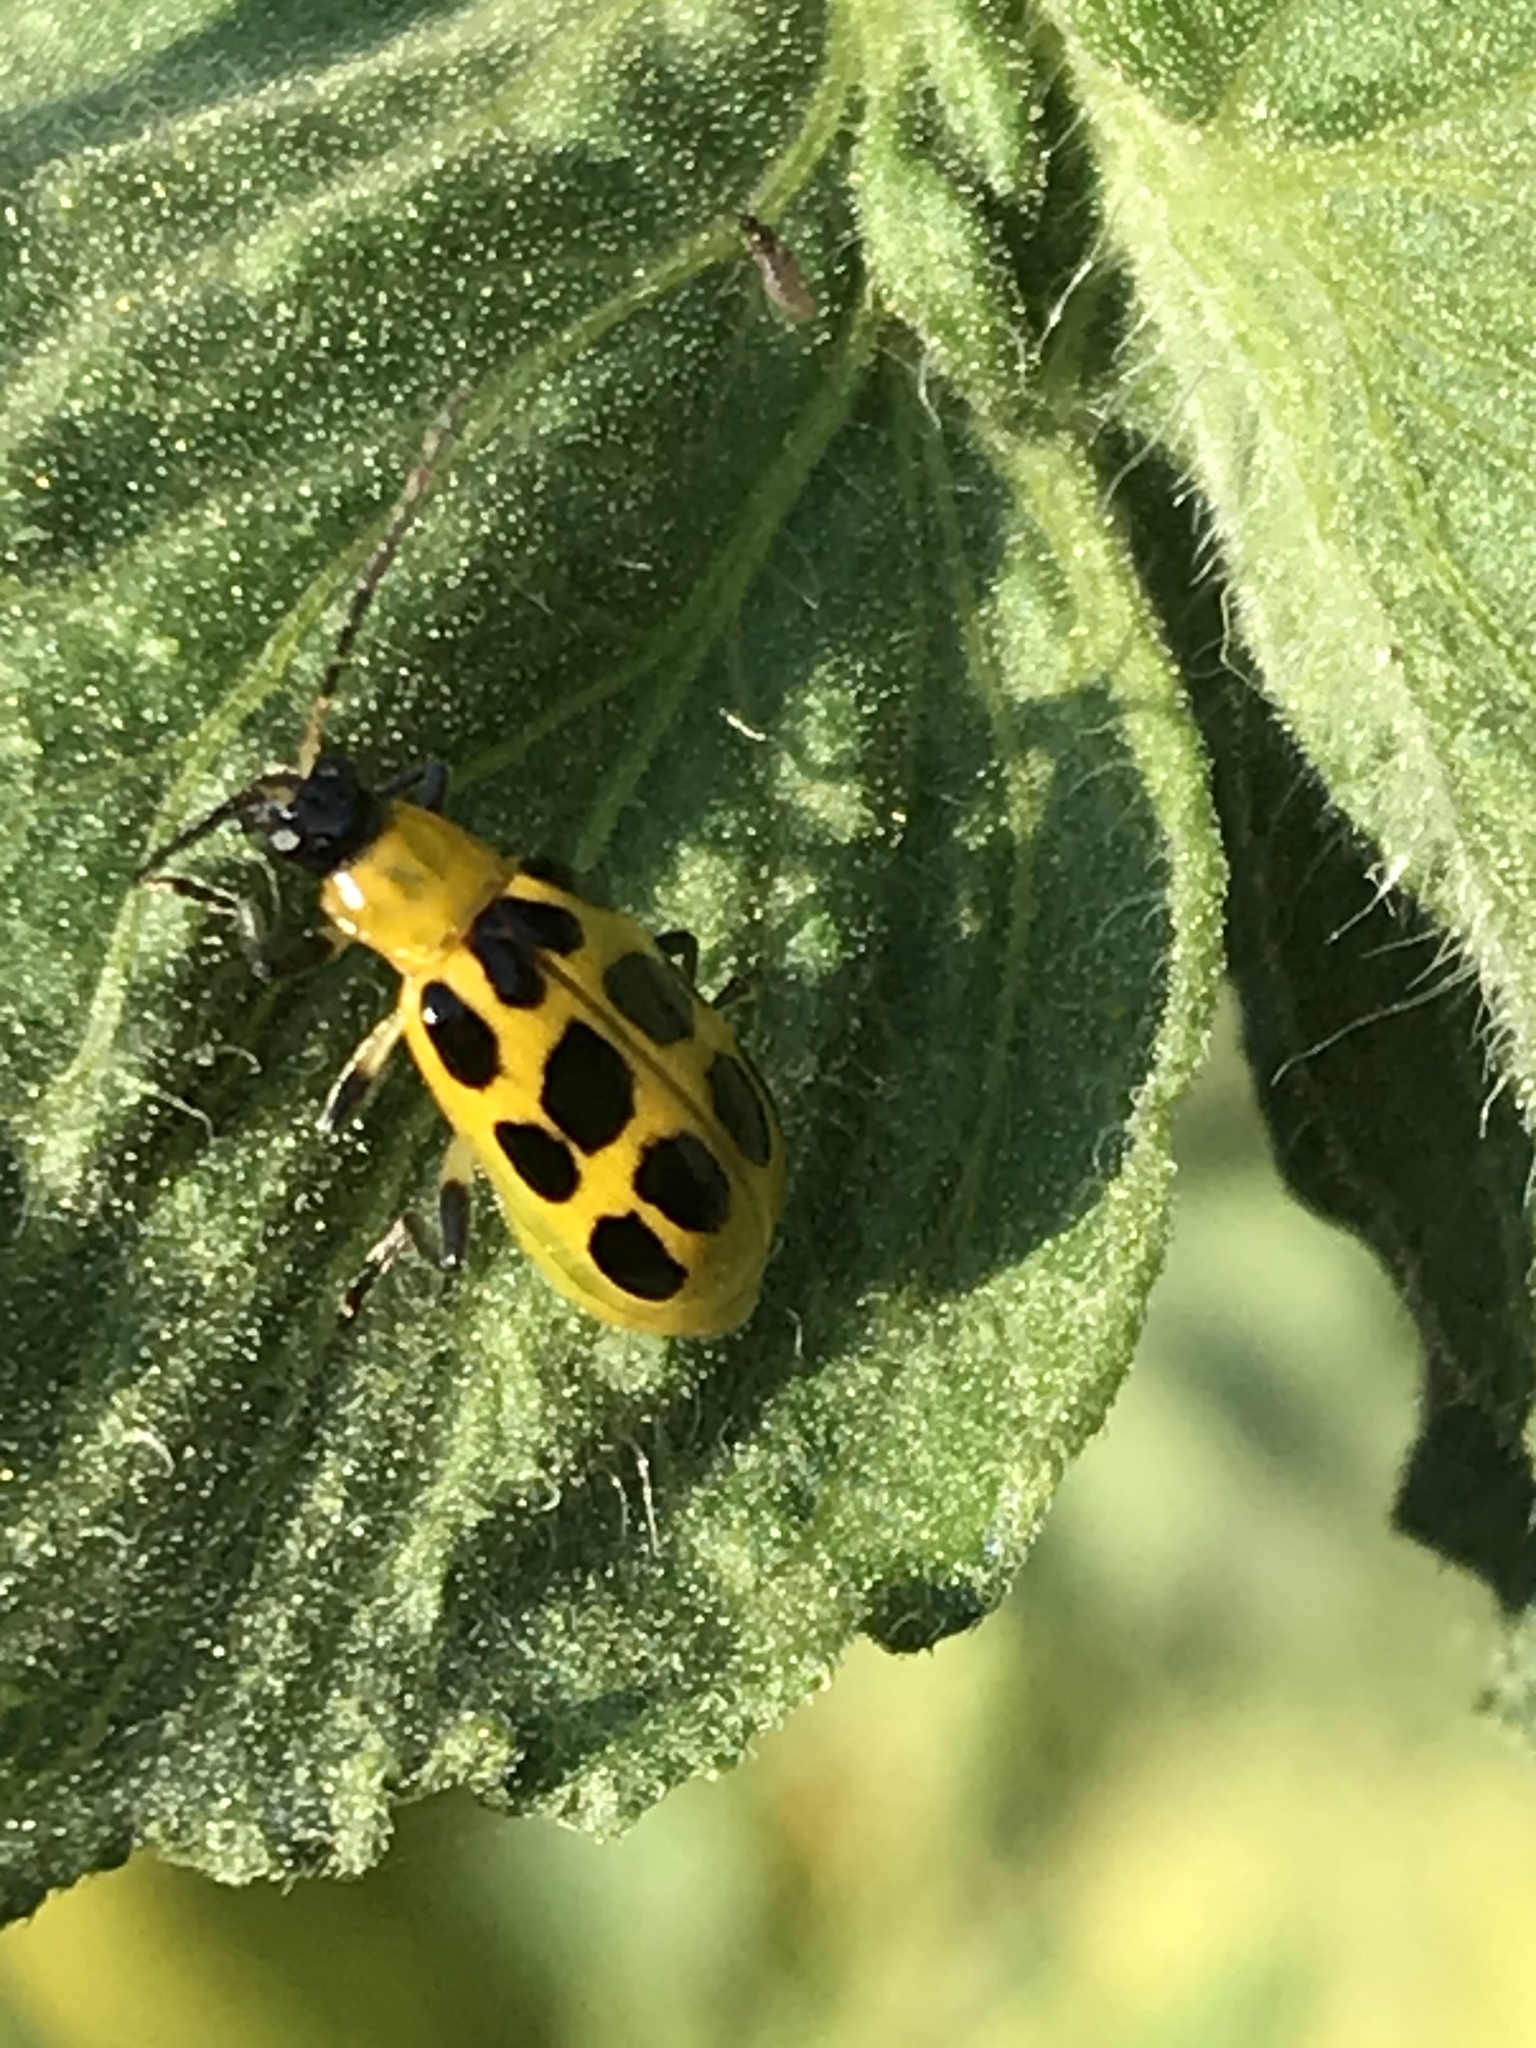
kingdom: Animalia
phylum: Arthropoda
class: Insecta
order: Coleoptera
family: Chrysomelidae
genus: Diabrotica
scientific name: Diabrotica undecimpunctata
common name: Spotted cucumber beetle
